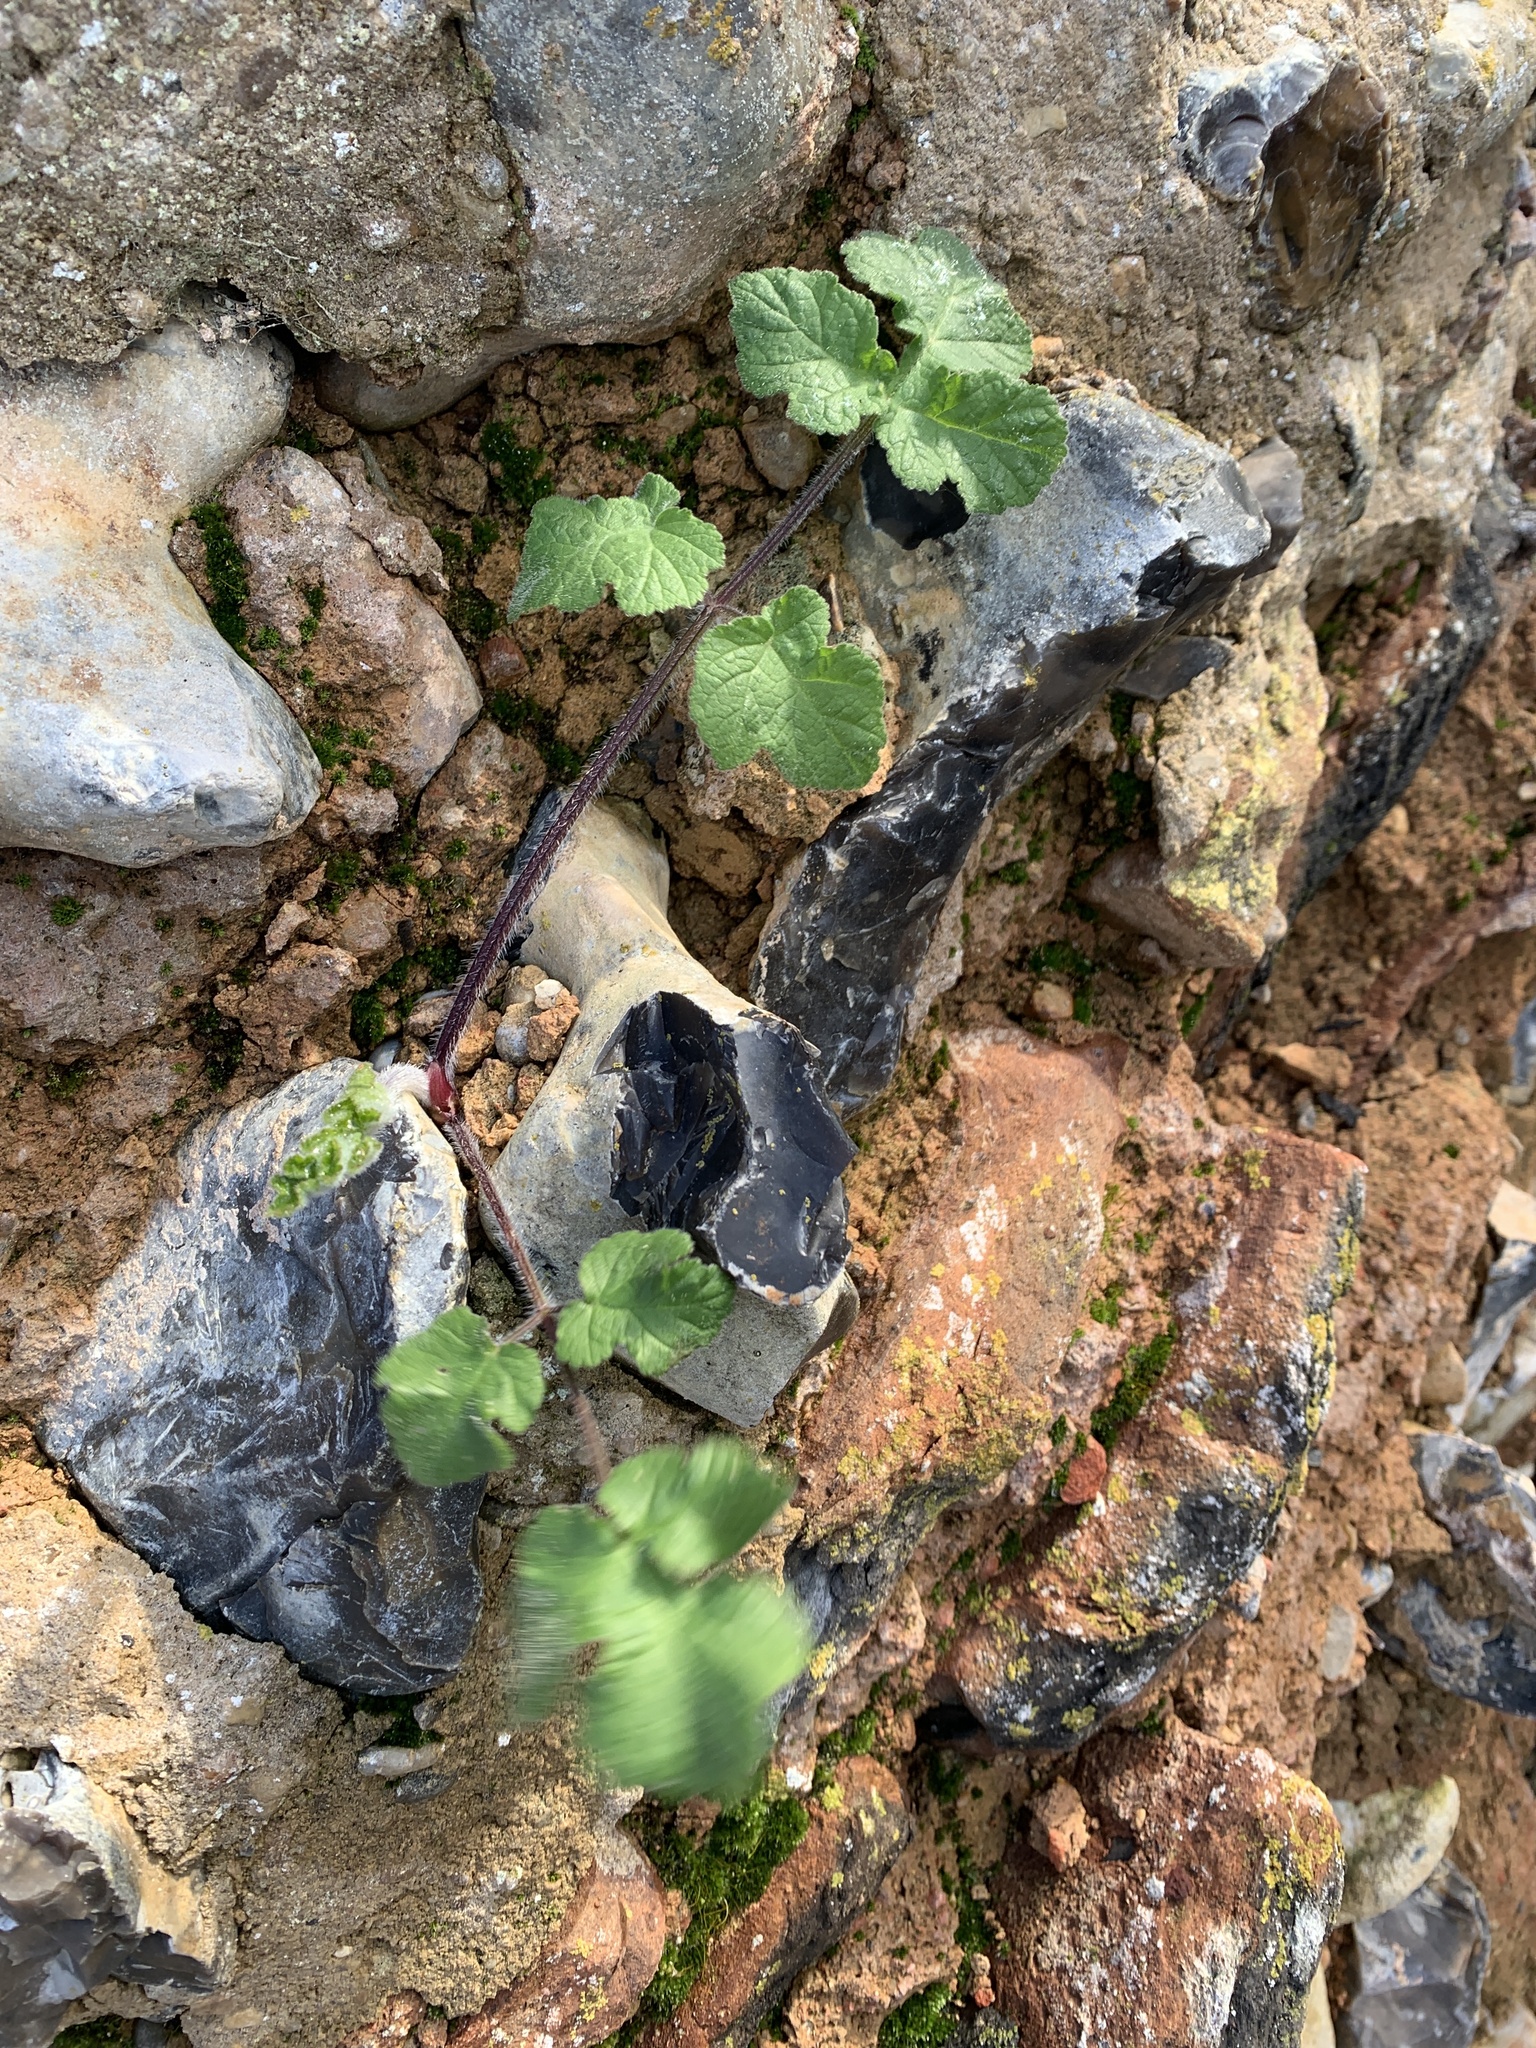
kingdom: Plantae
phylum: Tracheophyta
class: Magnoliopsida
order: Apiales
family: Apiaceae
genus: Heracleum
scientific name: Heracleum sphondylium
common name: Hogweed
